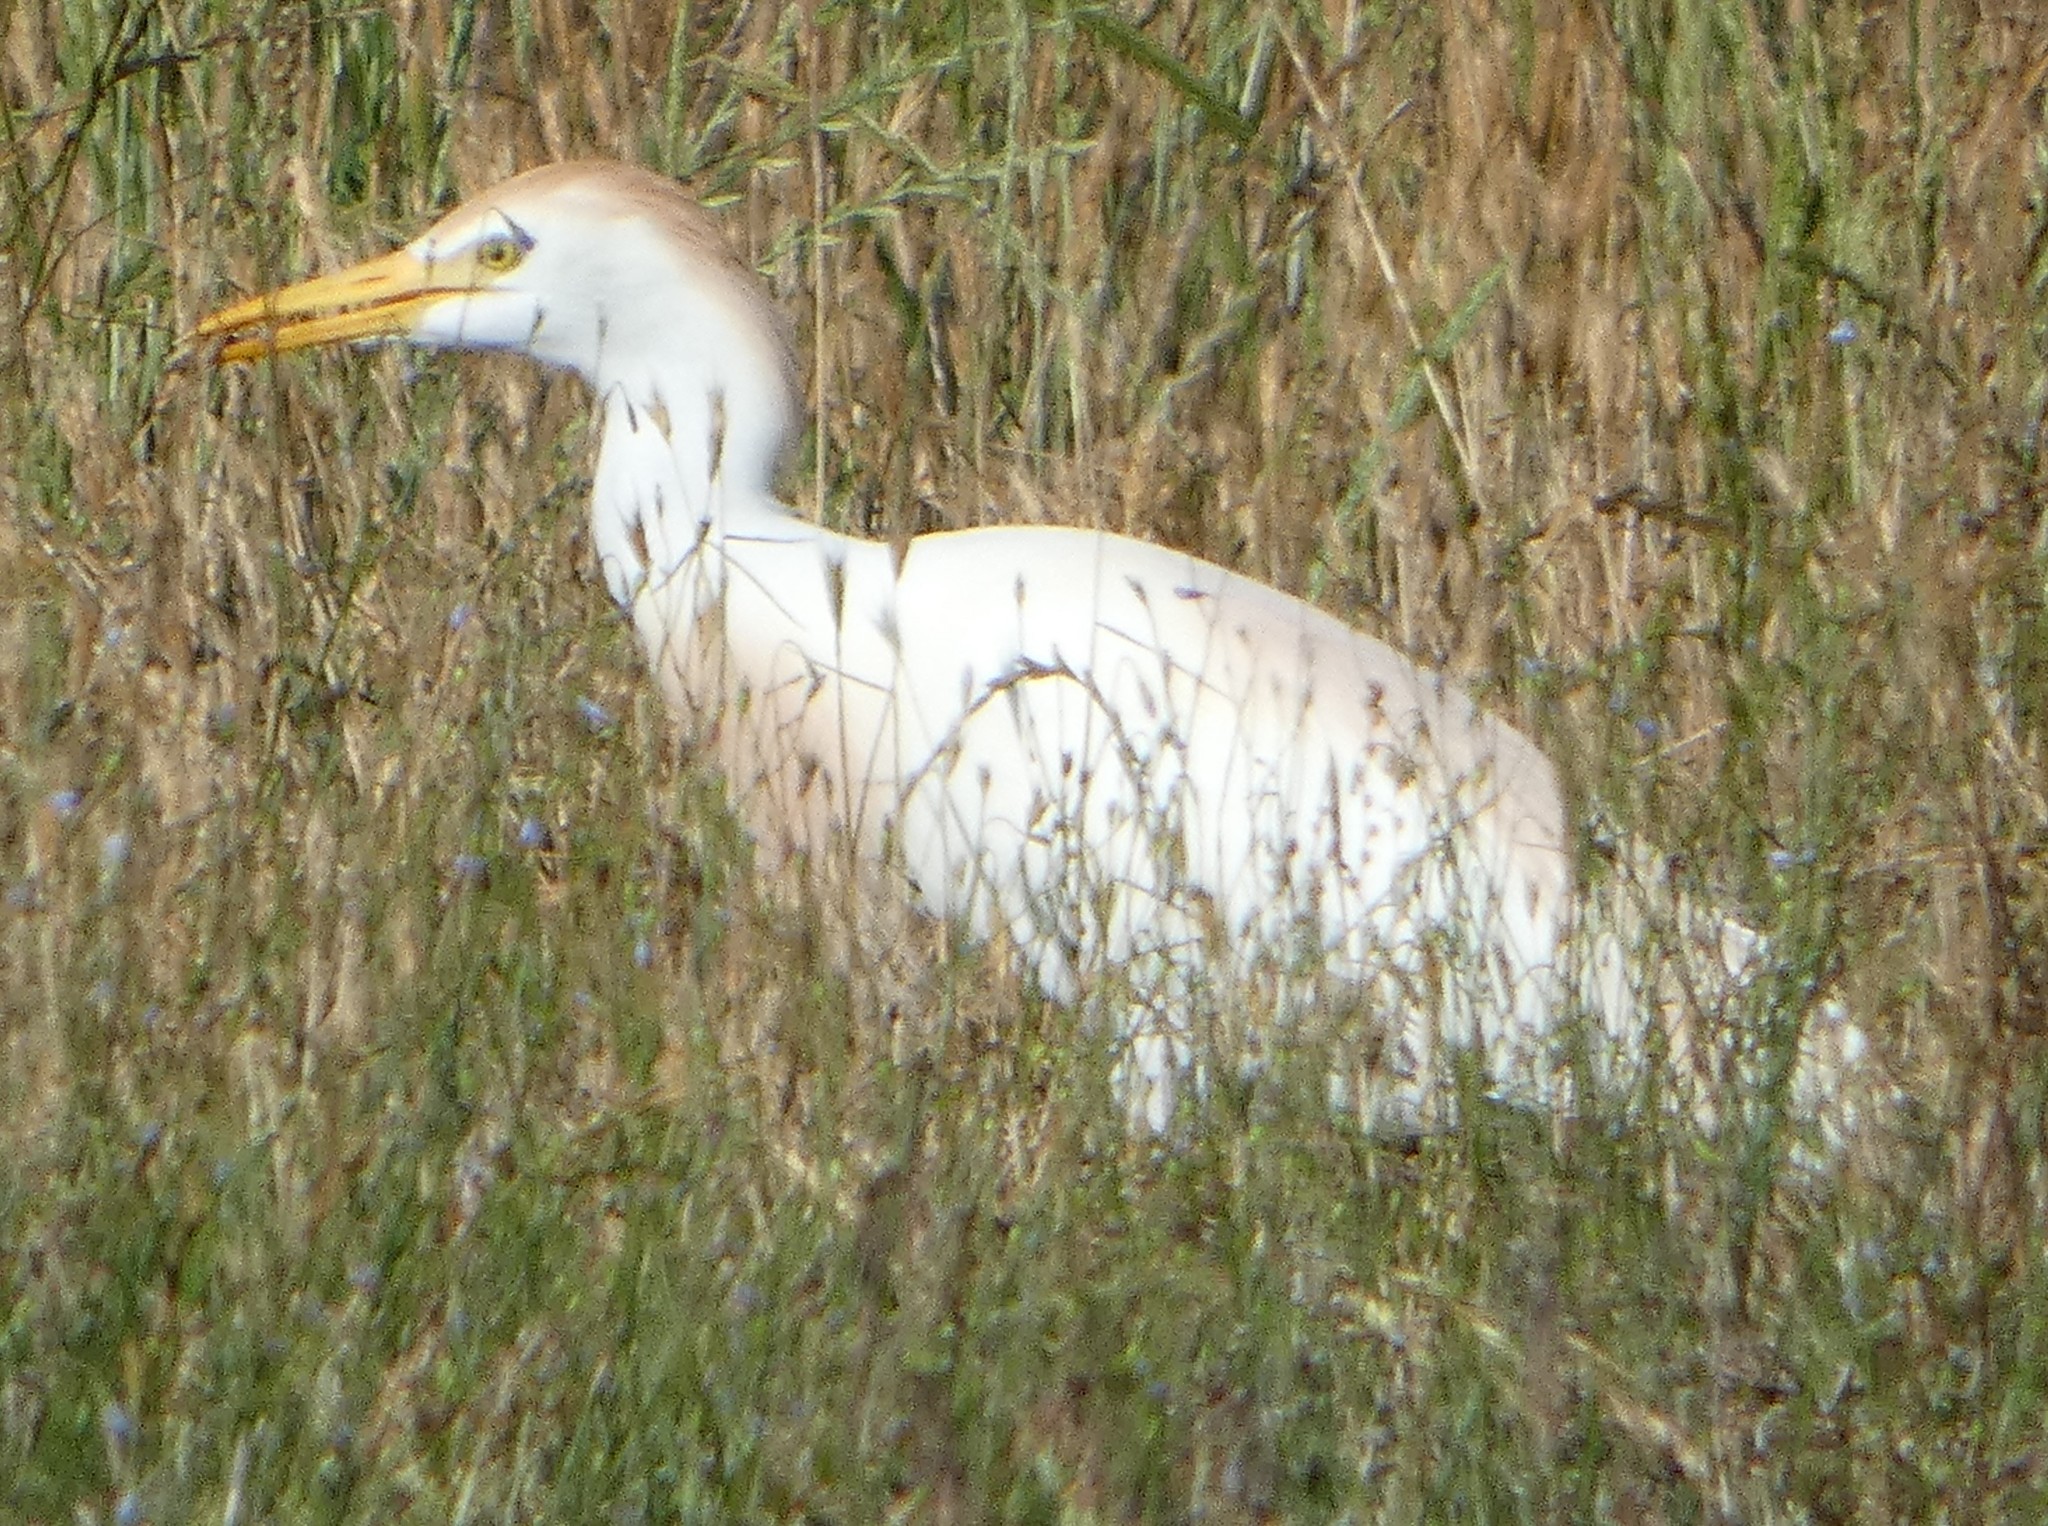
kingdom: Animalia
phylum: Chordata
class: Aves
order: Pelecaniformes
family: Ardeidae
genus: Bubulcus
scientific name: Bubulcus ibis
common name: Cattle egret
